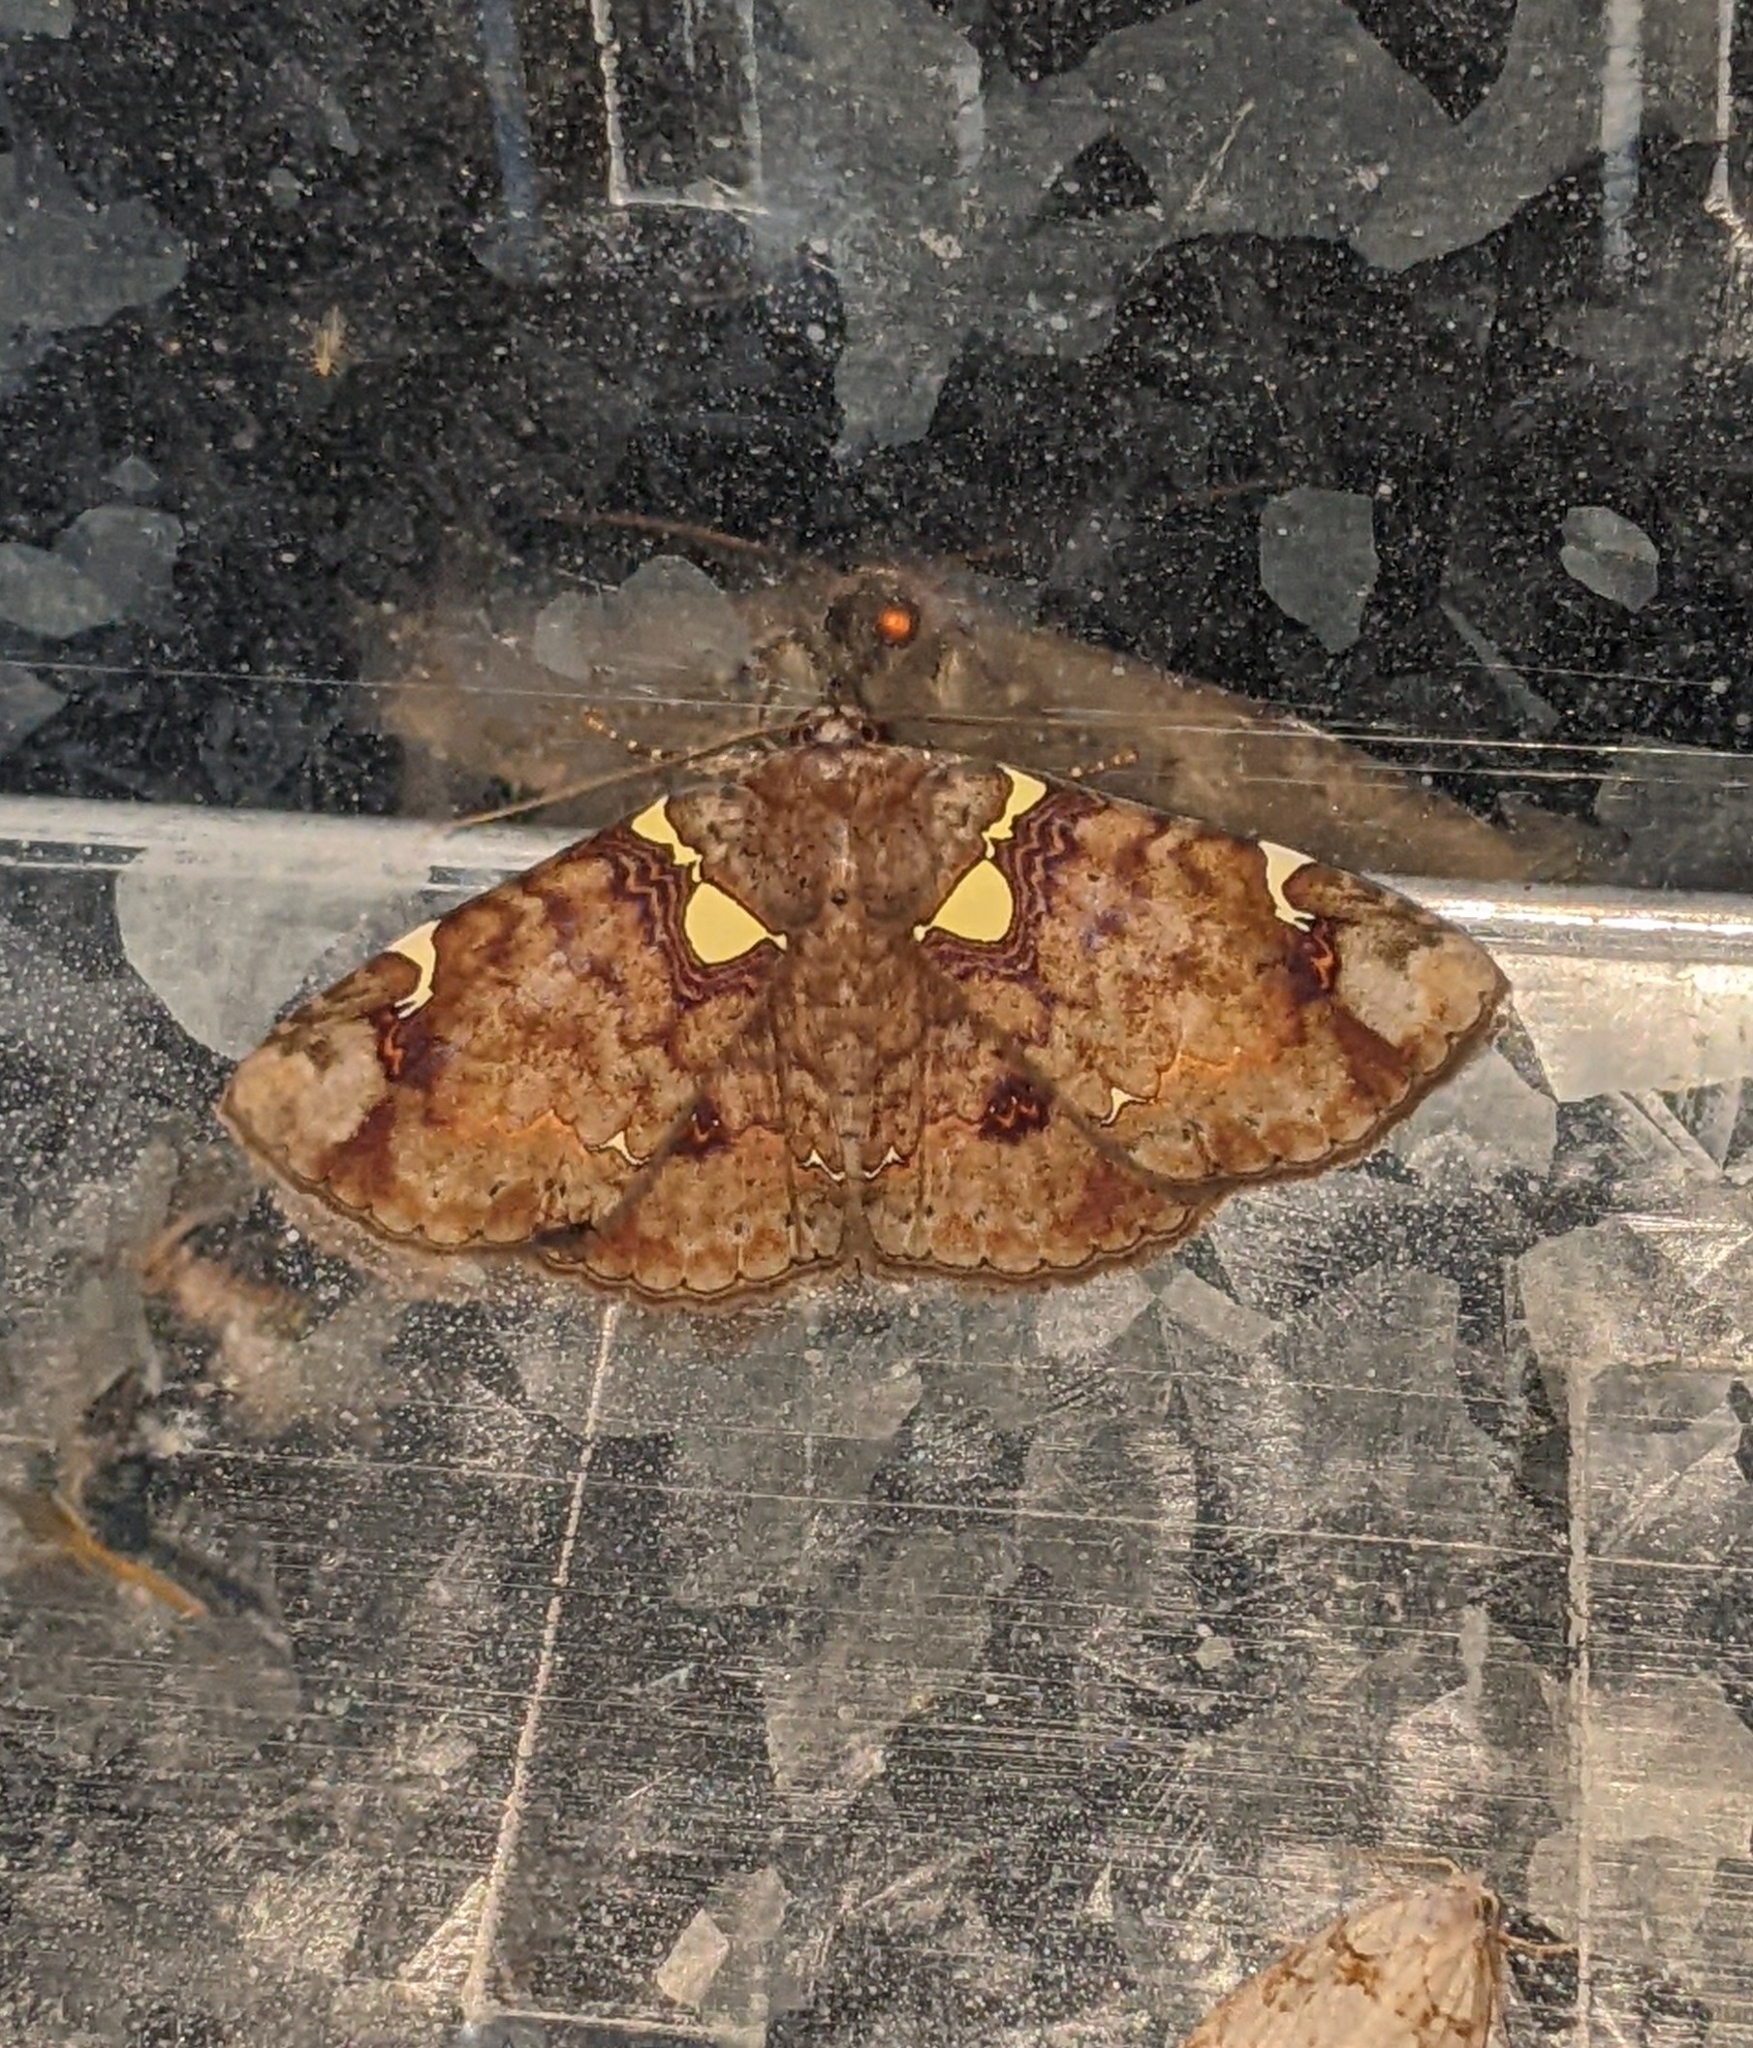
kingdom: Animalia
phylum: Arthropoda
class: Insecta
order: Lepidoptera
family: Erebidae
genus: Antiblemma
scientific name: Antiblemma albipunctata
